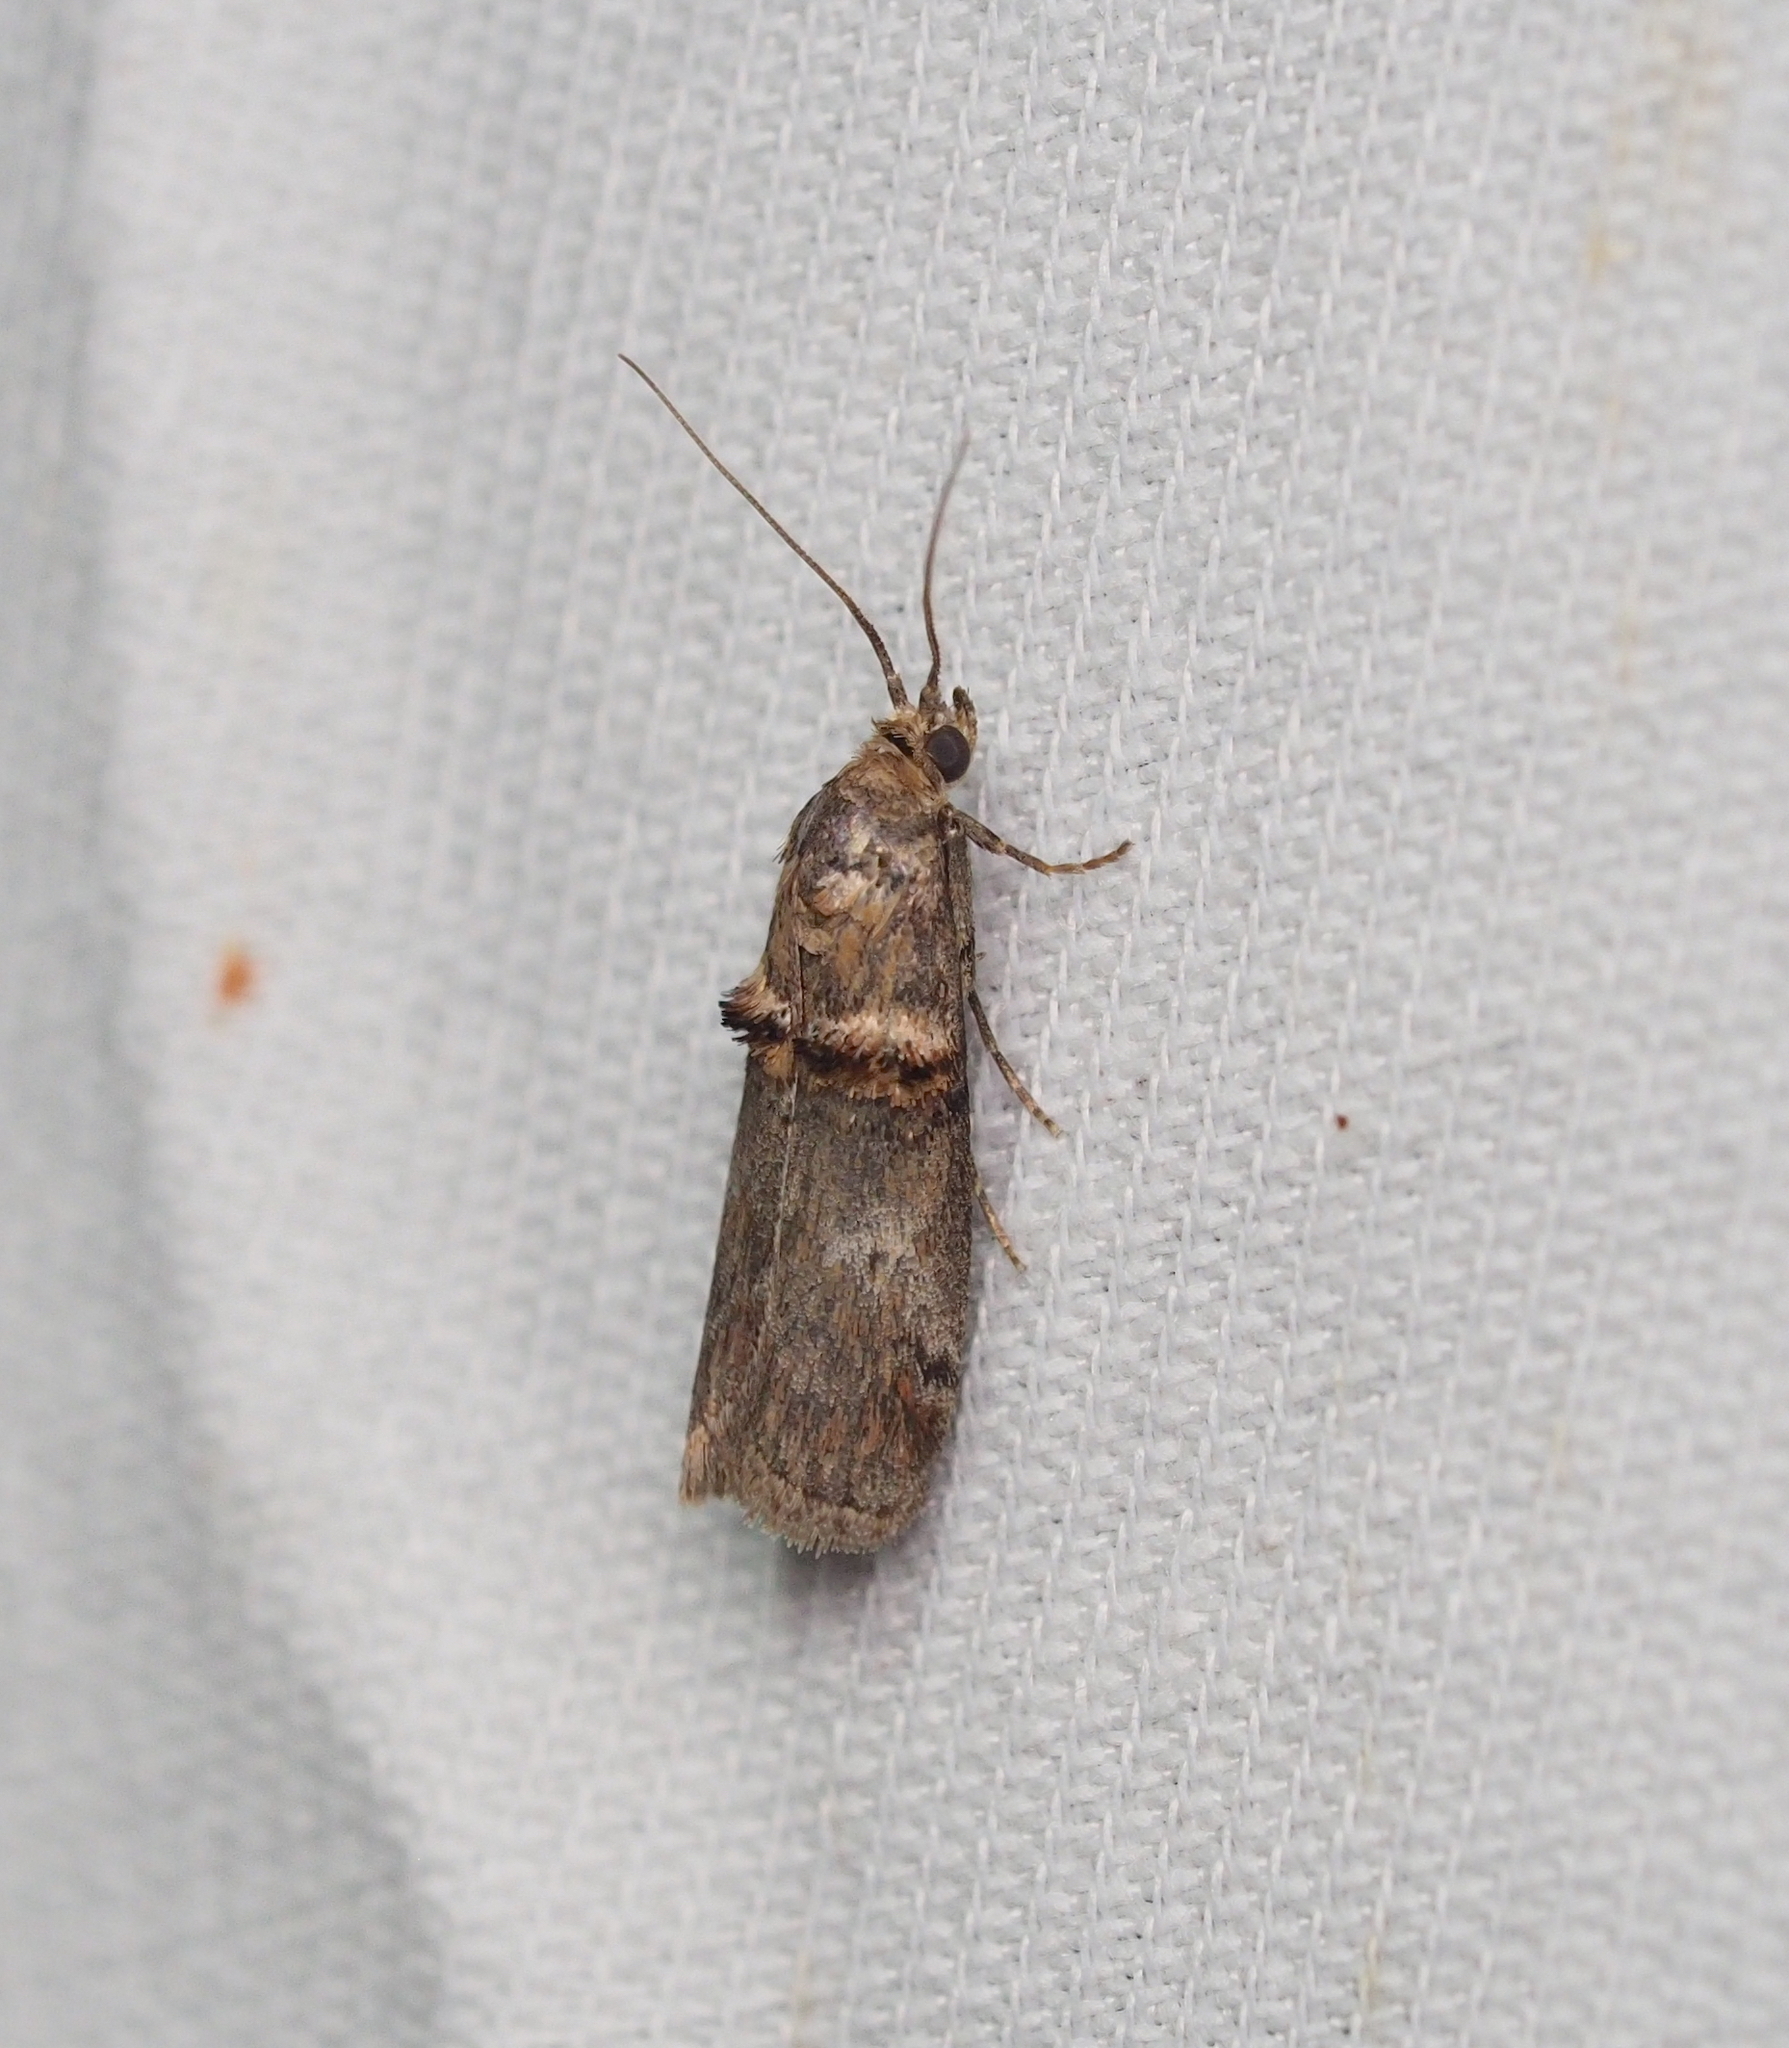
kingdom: Animalia
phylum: Arthropoda
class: Insecta
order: Lepidoptera
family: Pyralidae
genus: Trachonitis
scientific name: Trachonitis cristella
